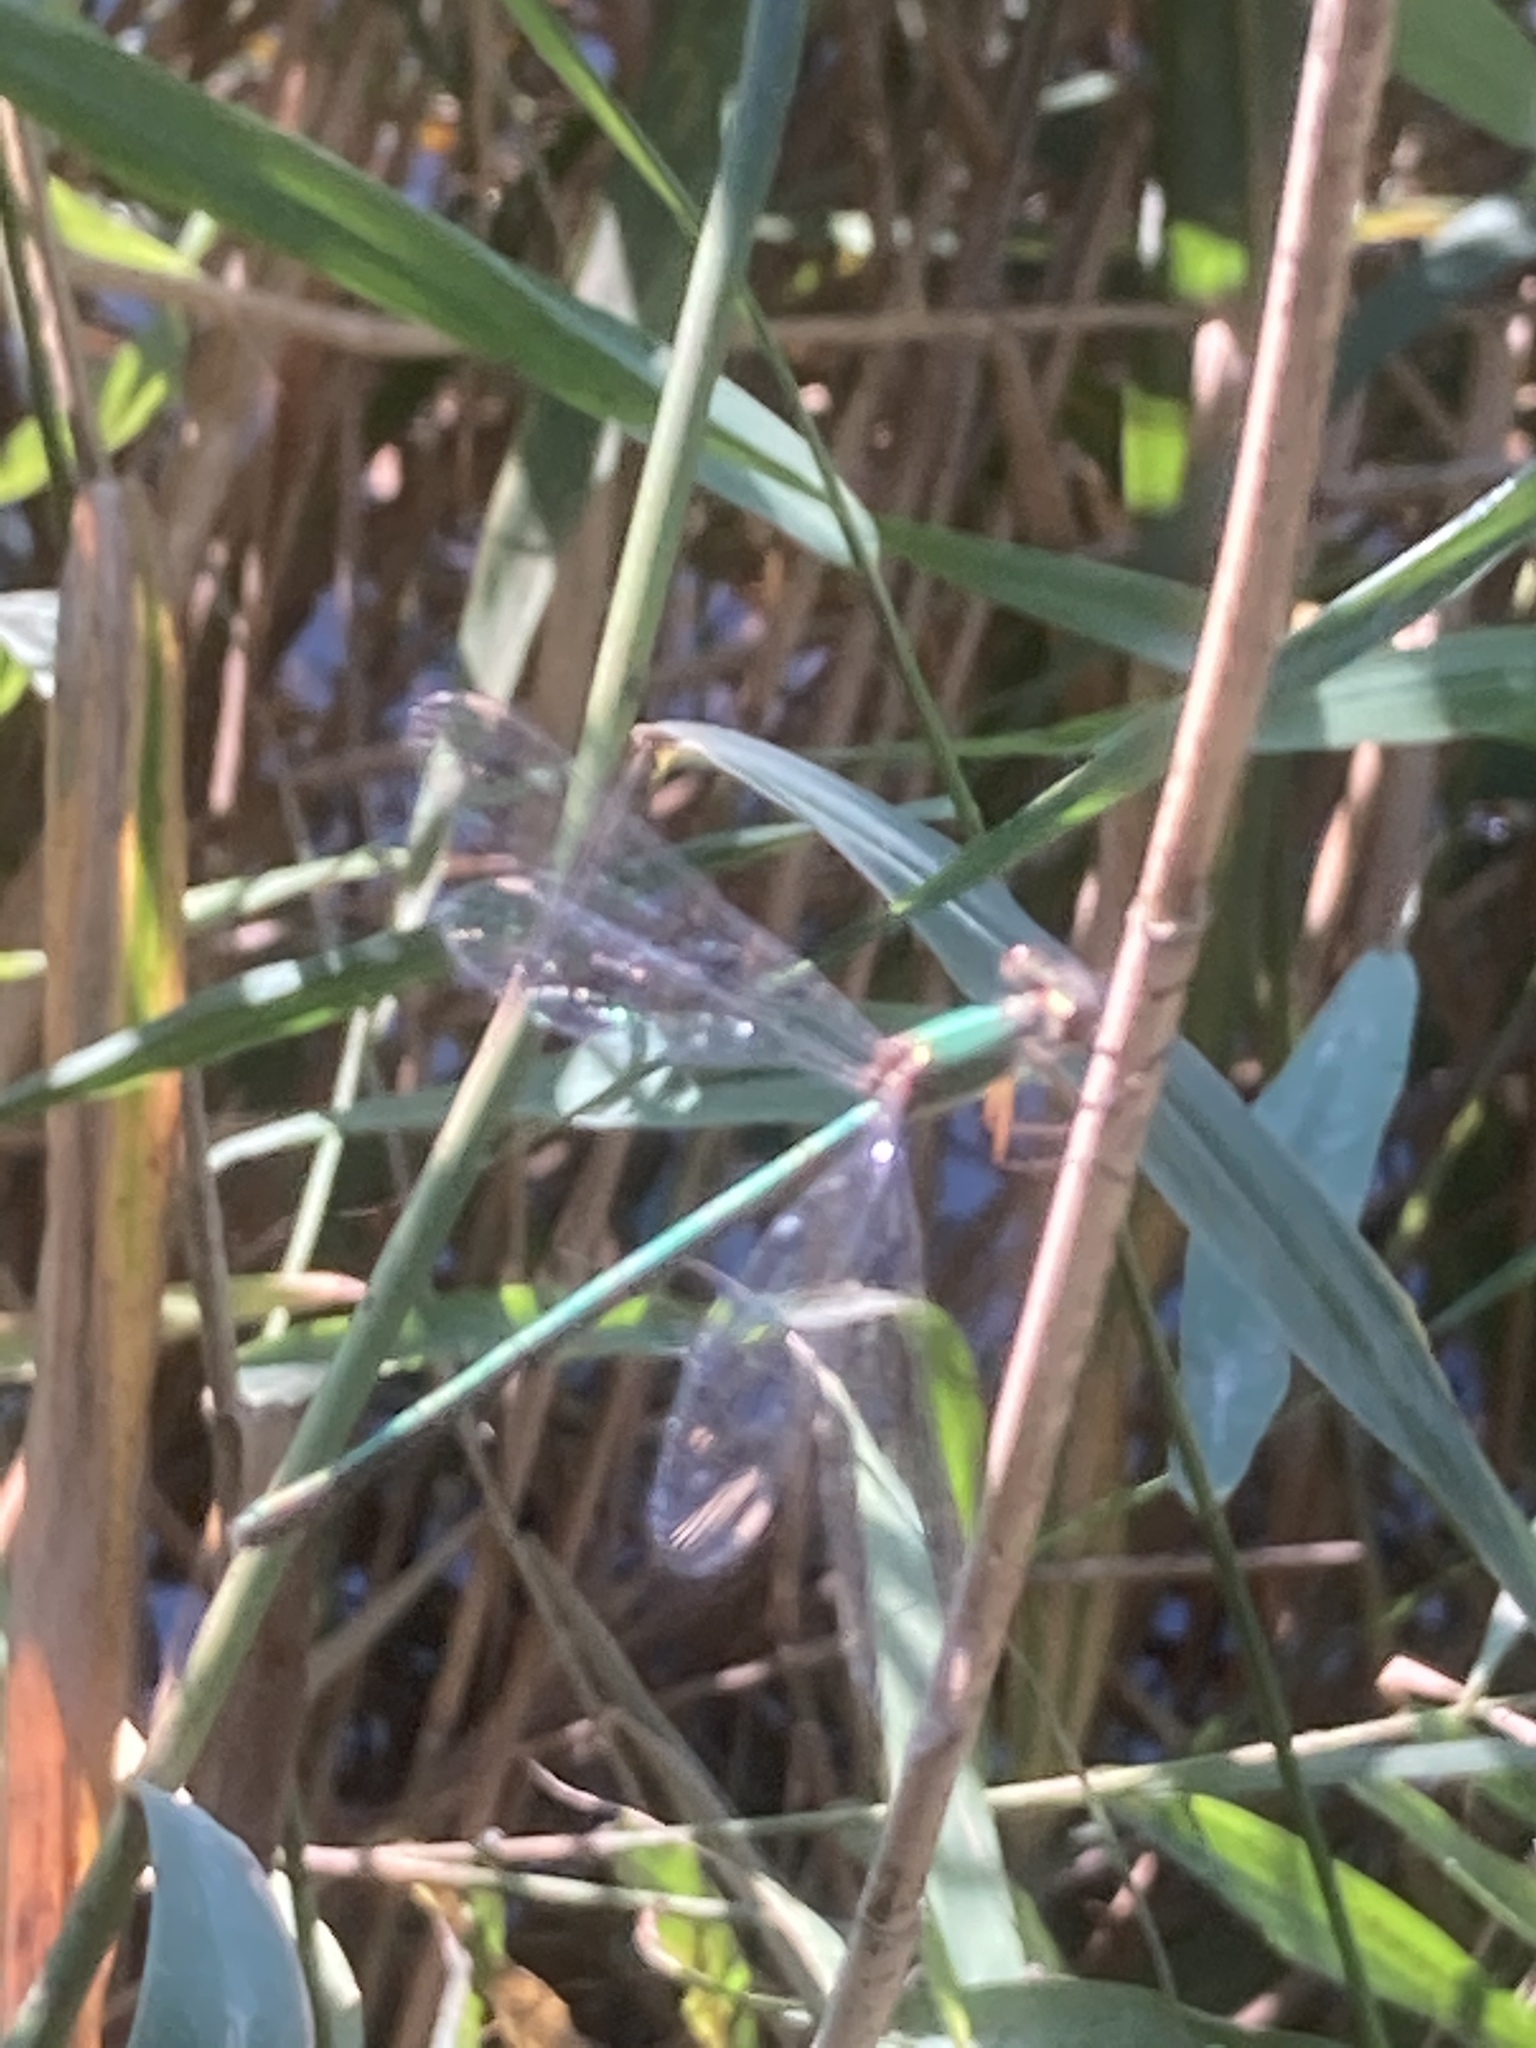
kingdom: Animalia
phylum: Arthropoda
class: Insecta
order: Odonata
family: Lestidae
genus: Chalcolestes
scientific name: Chalcolestes viridis
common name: Green emerald damselfly
